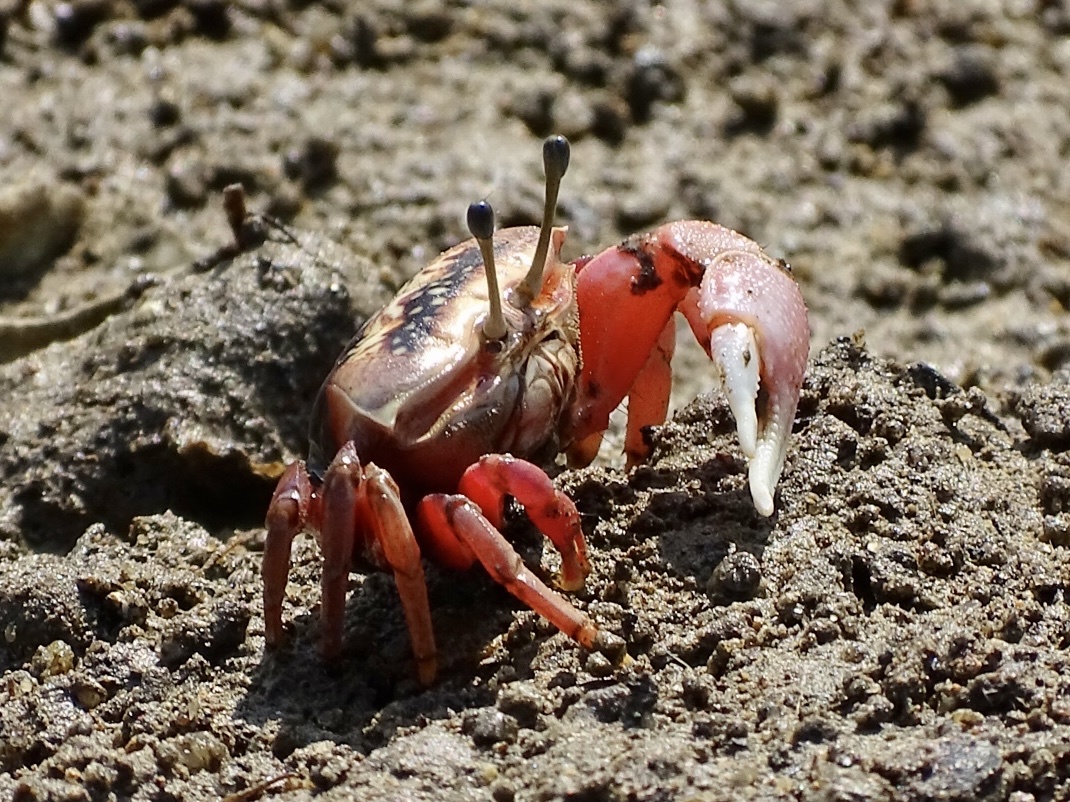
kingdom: Animalia
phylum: Arthropoda
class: Malacostraca
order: Decapoda
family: Ocypodidae
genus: Tubuca
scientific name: Tubuca arcuata
